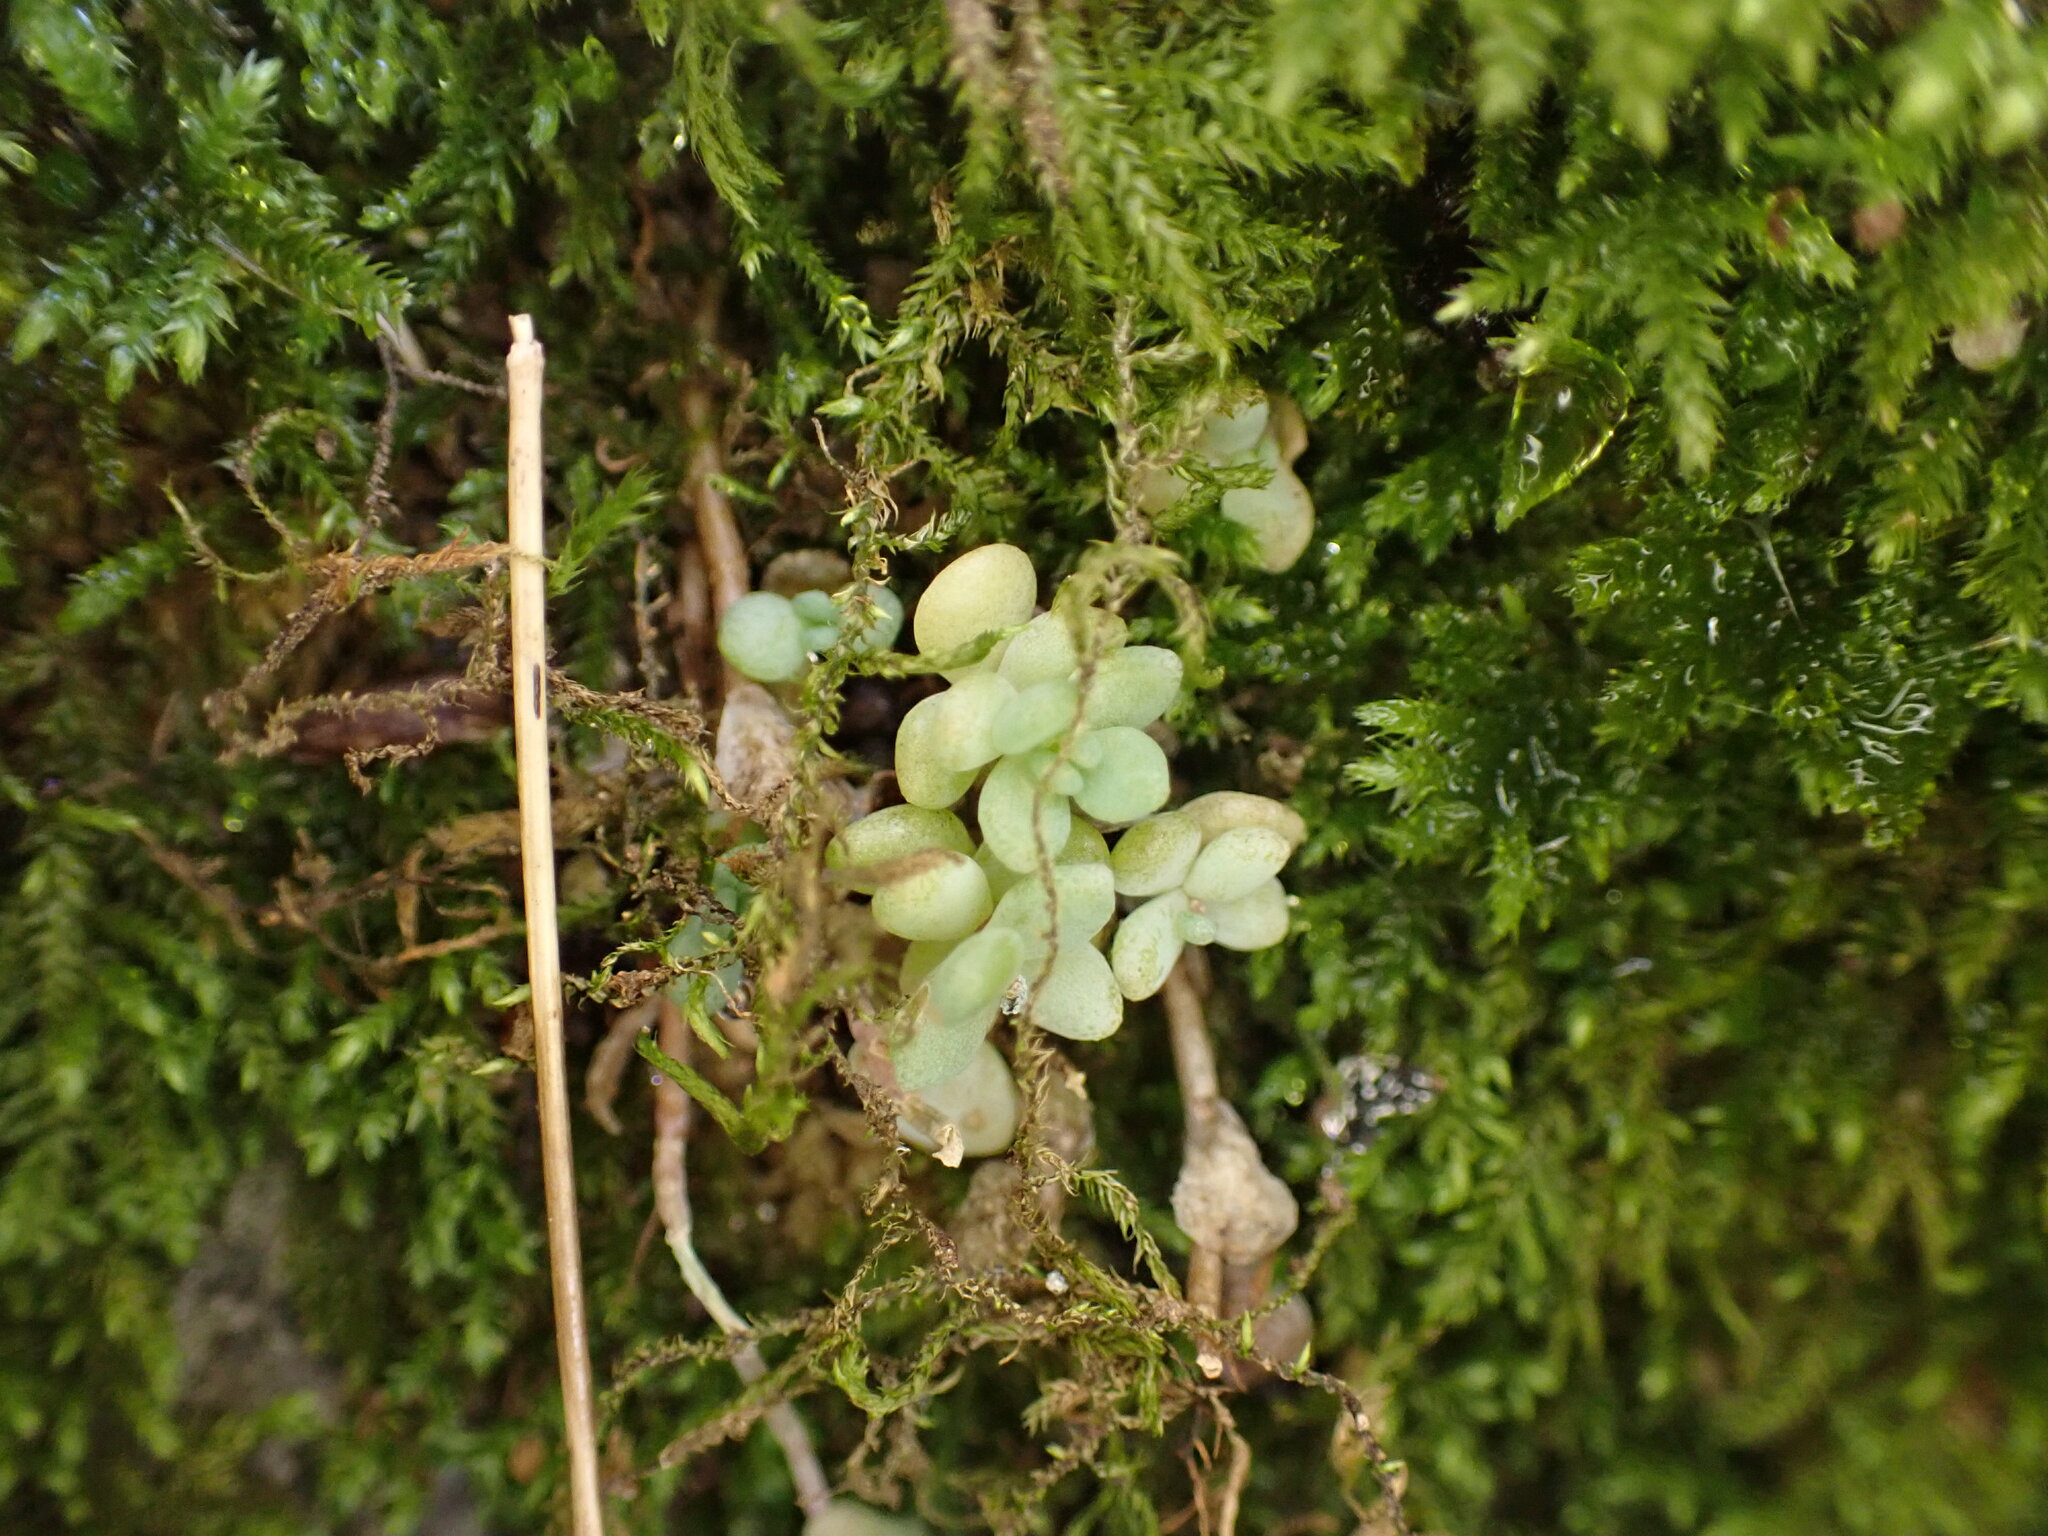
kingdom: Plantae
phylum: Tracheophyta
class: Magnoliopsida
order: Saxifragales
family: Crassulaceae
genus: Sedum
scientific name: Sedum dasyphyllum
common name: Thick-leaf stonecrop
